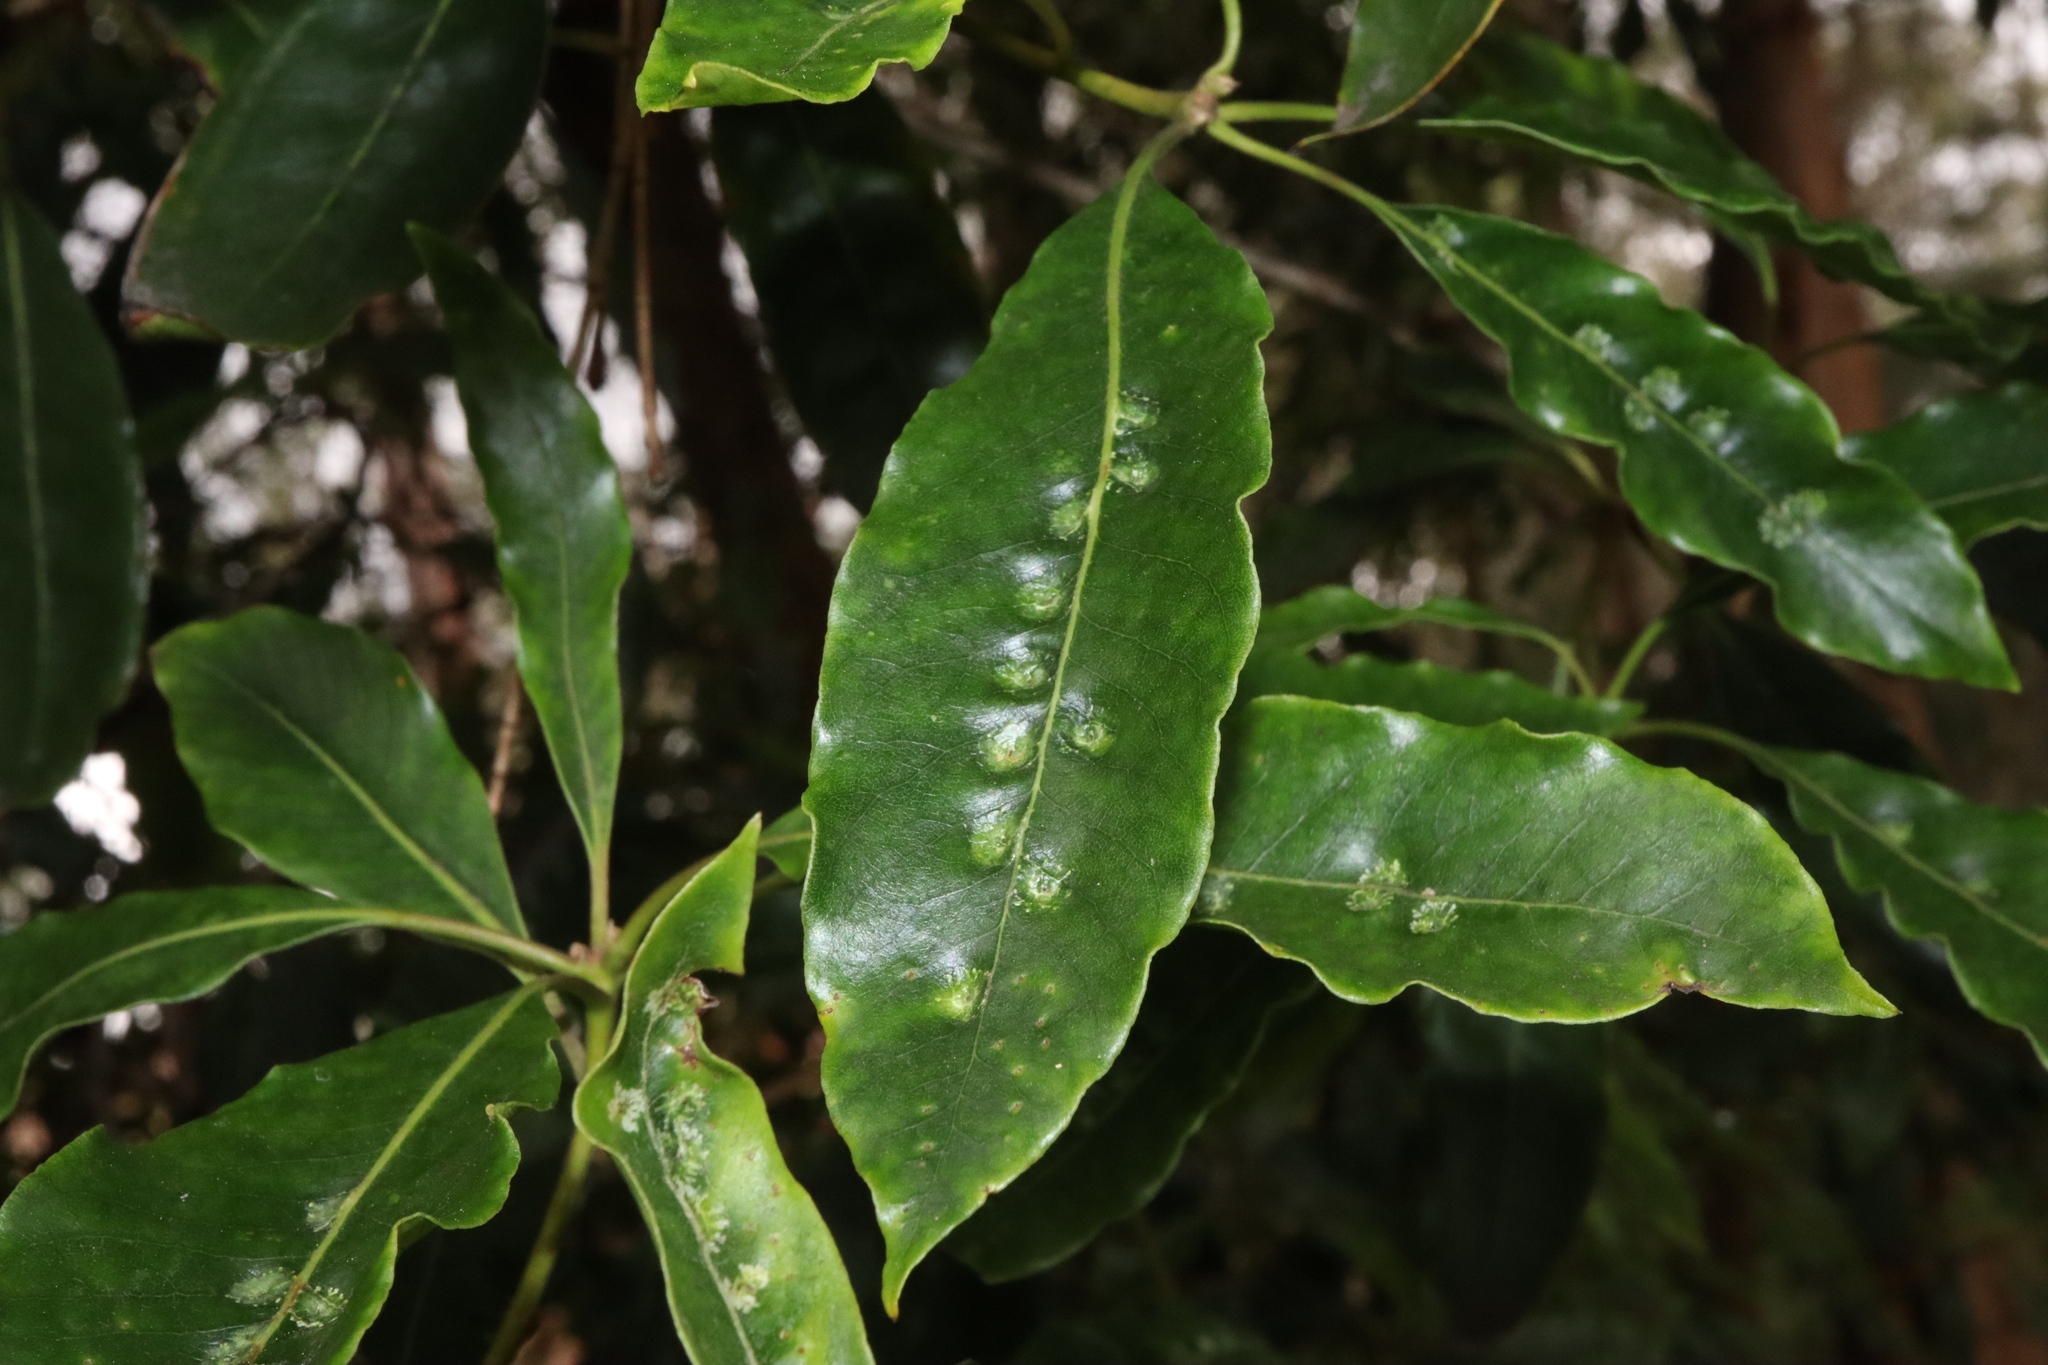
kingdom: Animalia
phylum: Arthropoda
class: Insecta
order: Diptera
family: Agromyzidae
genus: Phytoliriomyza
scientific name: Phytoliriomyza pittosporophylli
